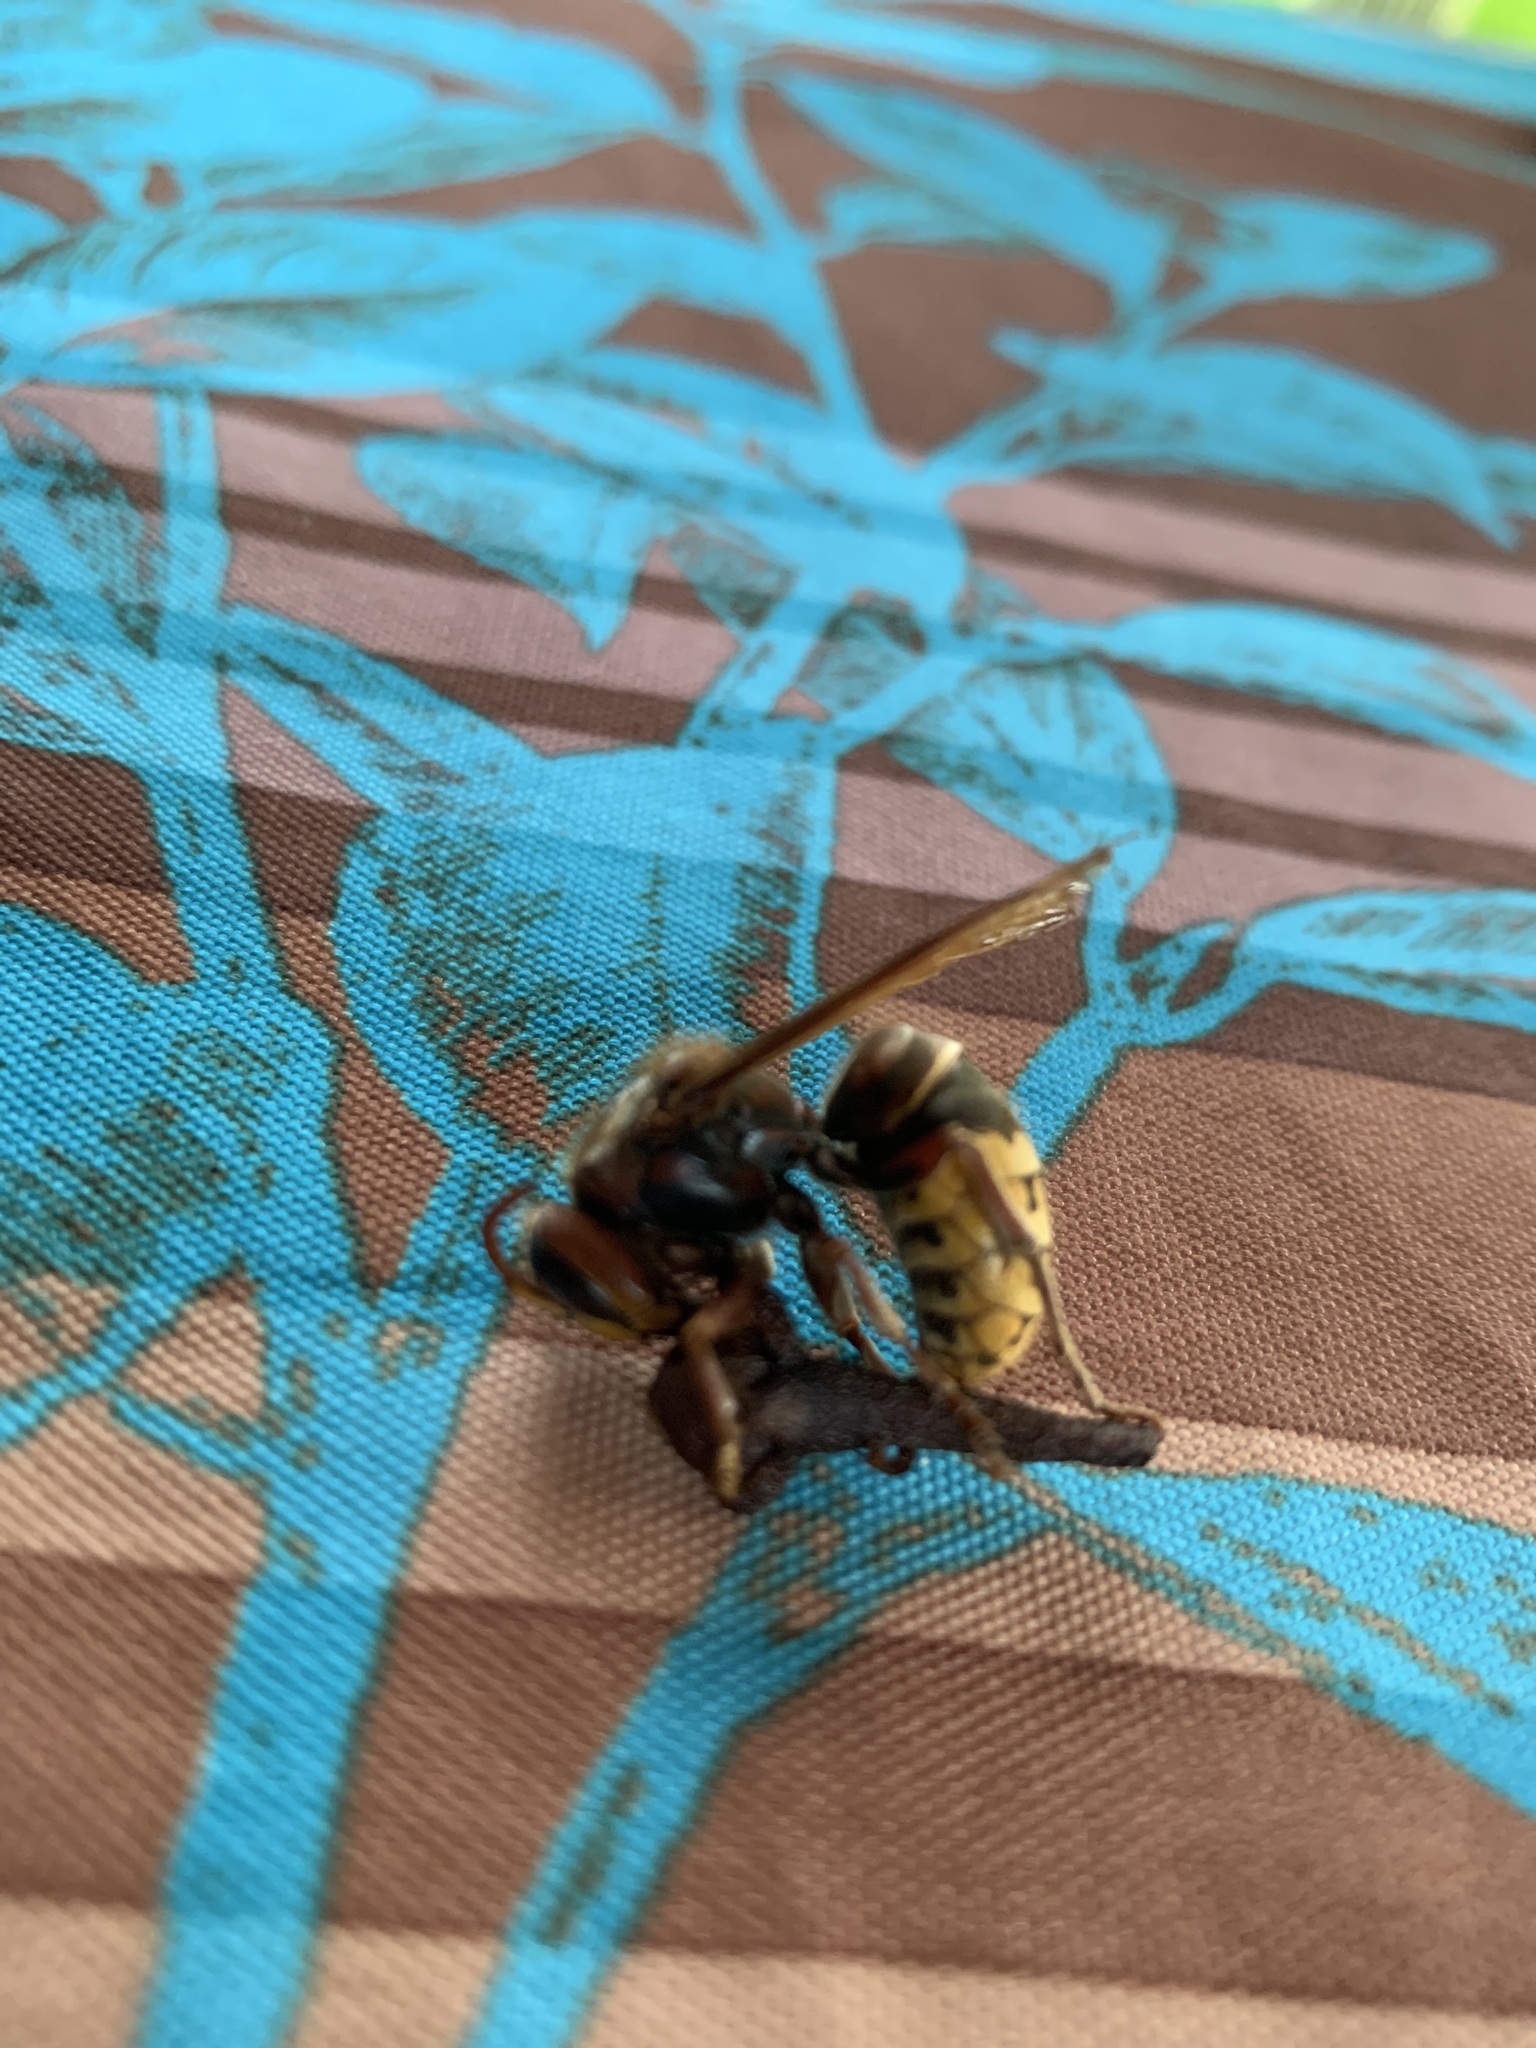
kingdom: Animalia
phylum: Arthropoda
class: Insecta
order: Hymenoptera
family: Vespidae
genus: Vespa
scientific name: Vespa crabro
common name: Hornet
